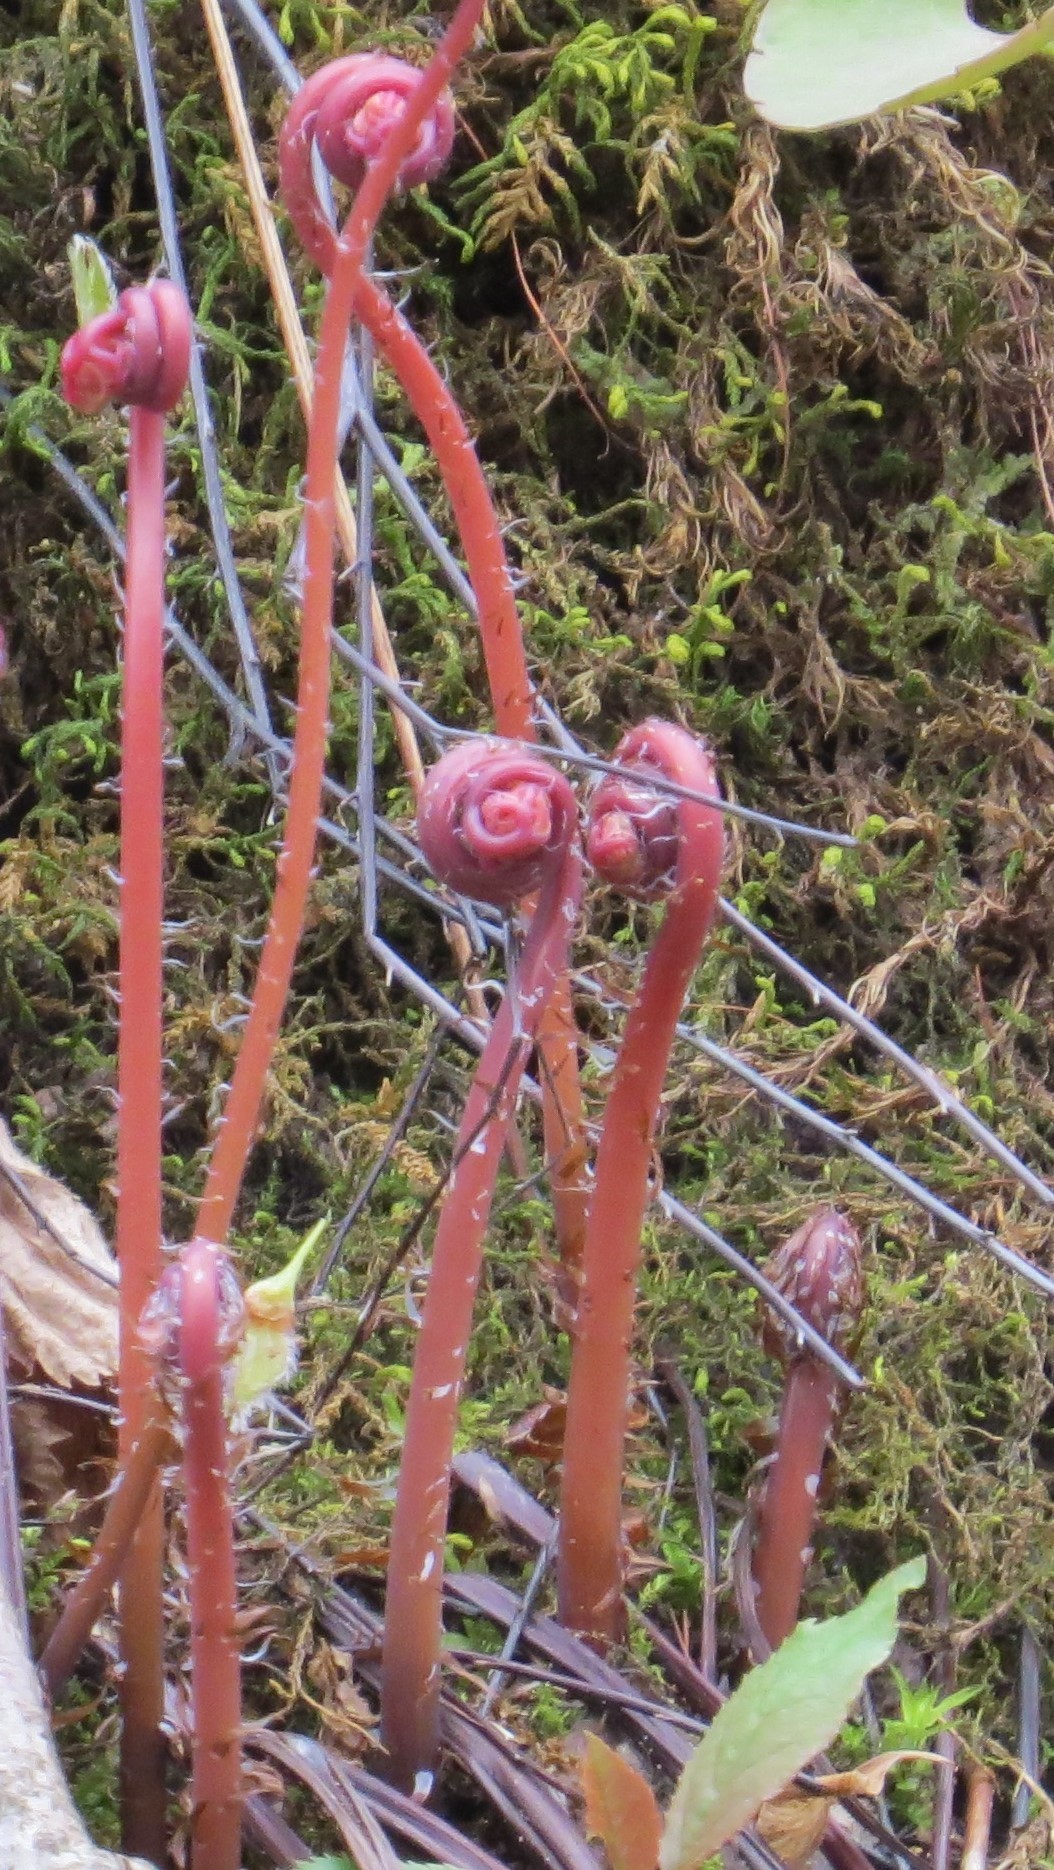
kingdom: Plantae
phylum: Tracheophyta
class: Polypodiopsida
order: Polypodiales
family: Pteridaceae
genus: Adiantum
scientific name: Adiantum pedatum
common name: Five-finger fern
